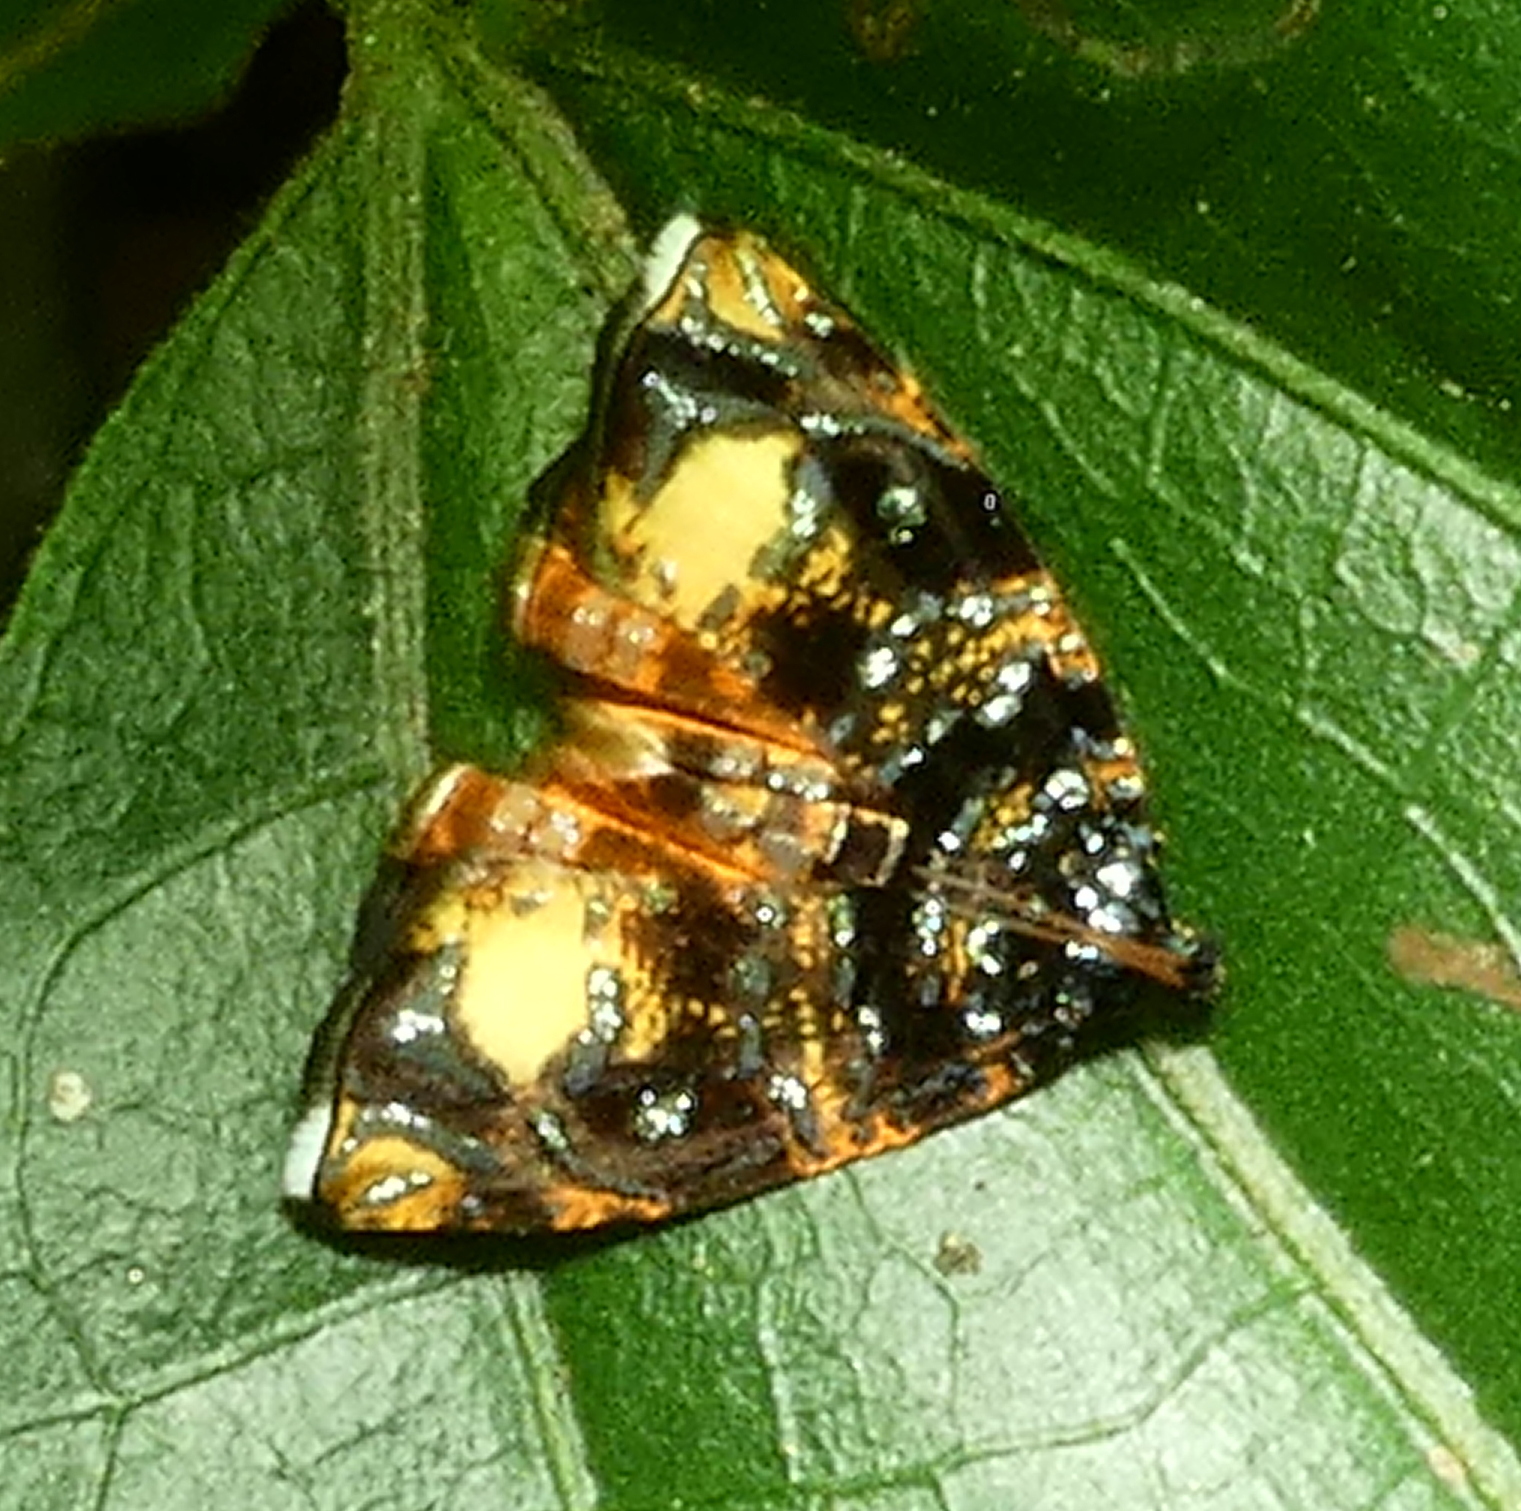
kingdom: Animalia
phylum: Arthropoda
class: Insecta
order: Lepidoptera
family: Tortricidae
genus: Mictopsichia
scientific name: Mictopsichia hubneriana
